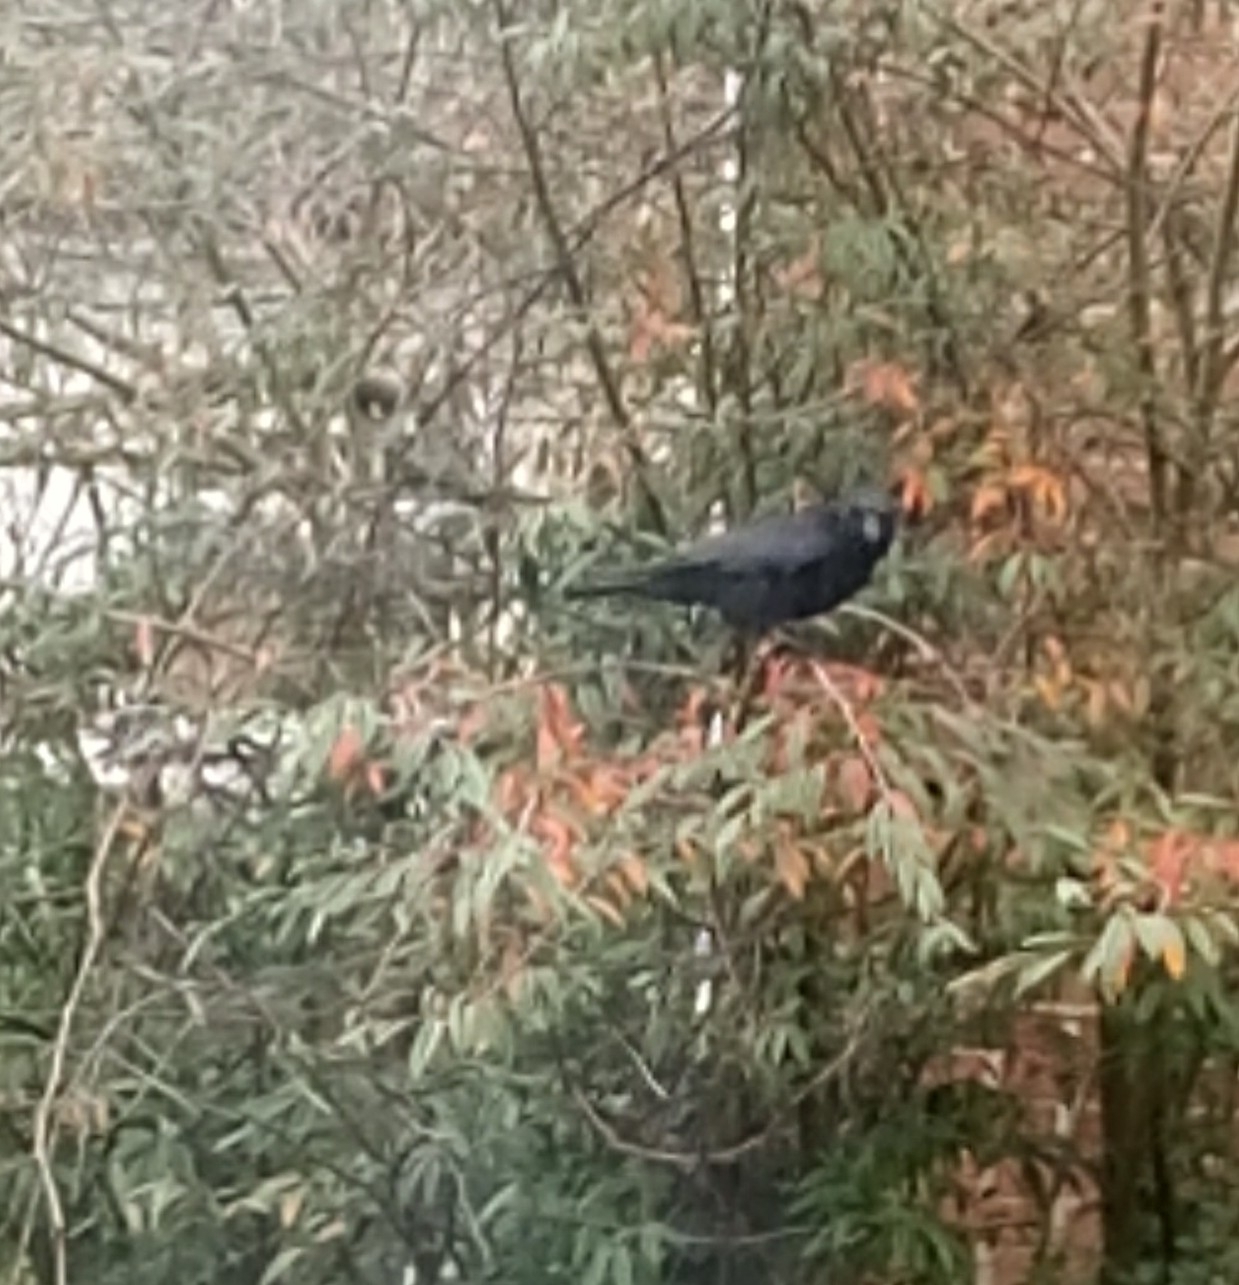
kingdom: Animalia
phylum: Chordata
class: Aves
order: Passeriformes
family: Corvidae
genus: Corvus
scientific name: Corvus corone
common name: Carrion crow
